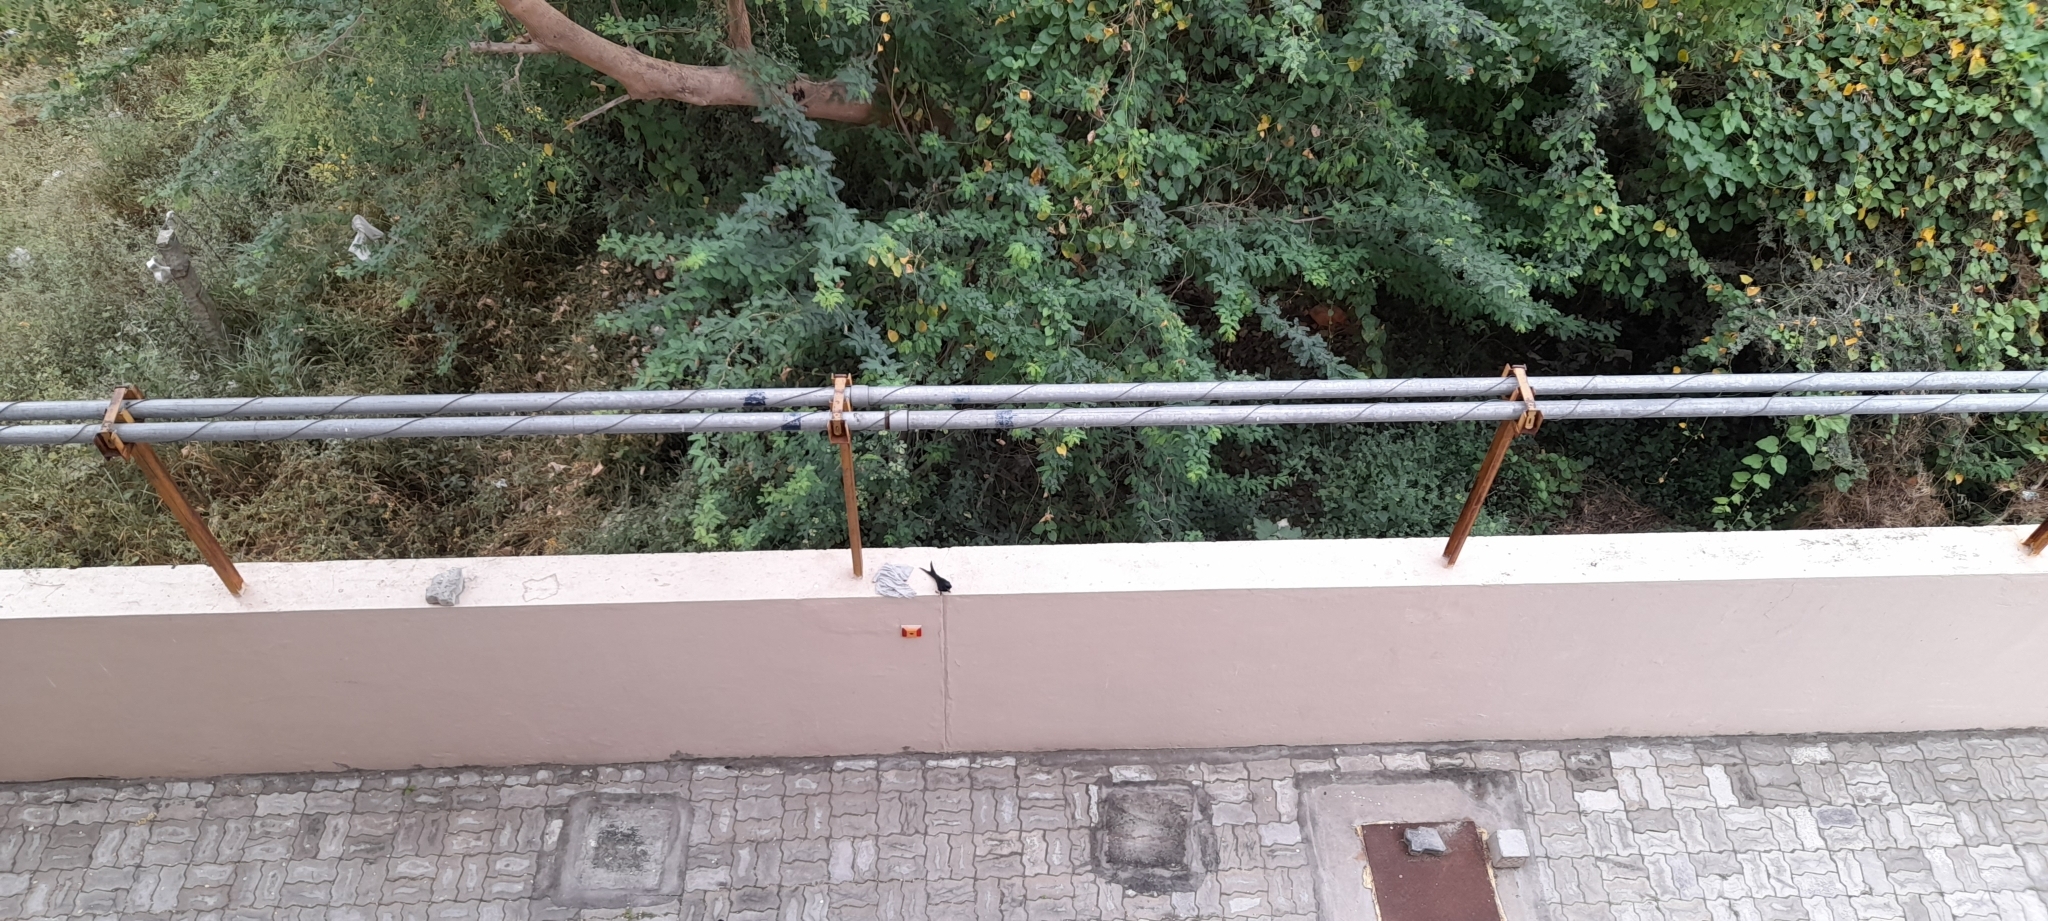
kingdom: Animalia
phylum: Chordata
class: Aves
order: Passeriformes
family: Dicruridae
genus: Dicrurus
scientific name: Dicrurus macrocercus
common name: Black drongo
